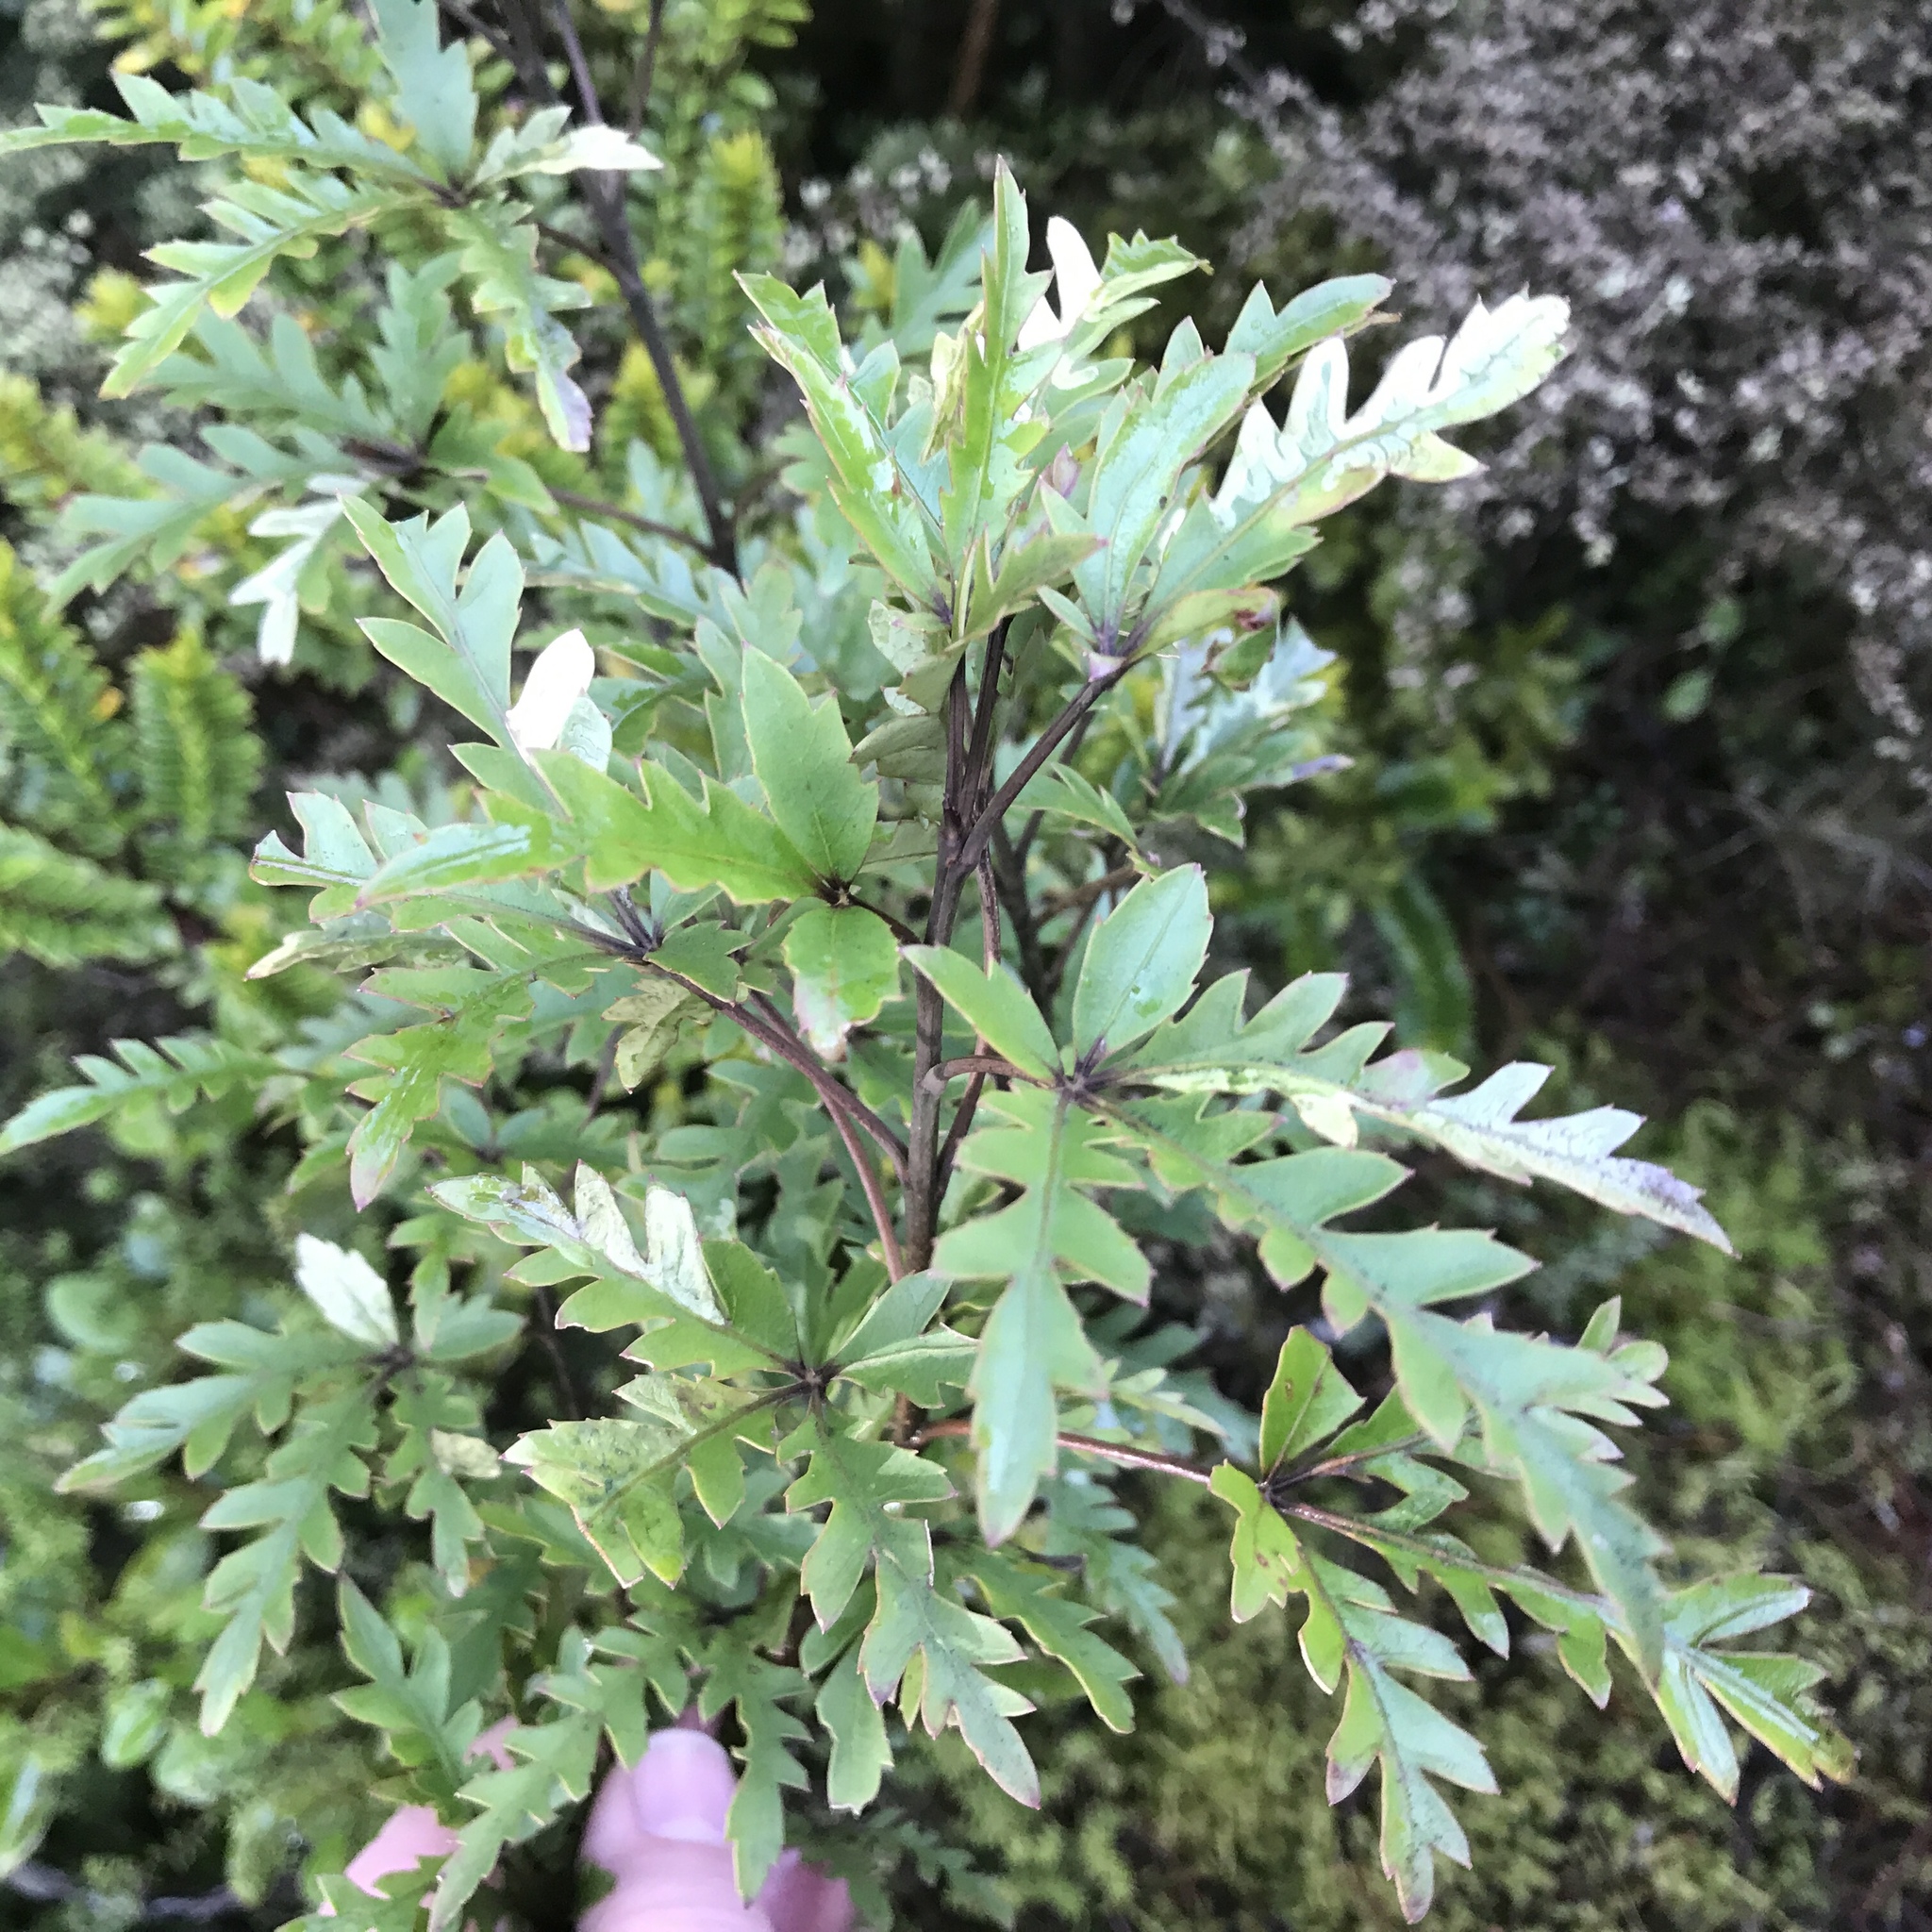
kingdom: Plantae
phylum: Tracheophyta
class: Magnoliopsida
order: Apiales
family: Araliaceae
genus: Raukaua
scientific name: Raukaua simplex
